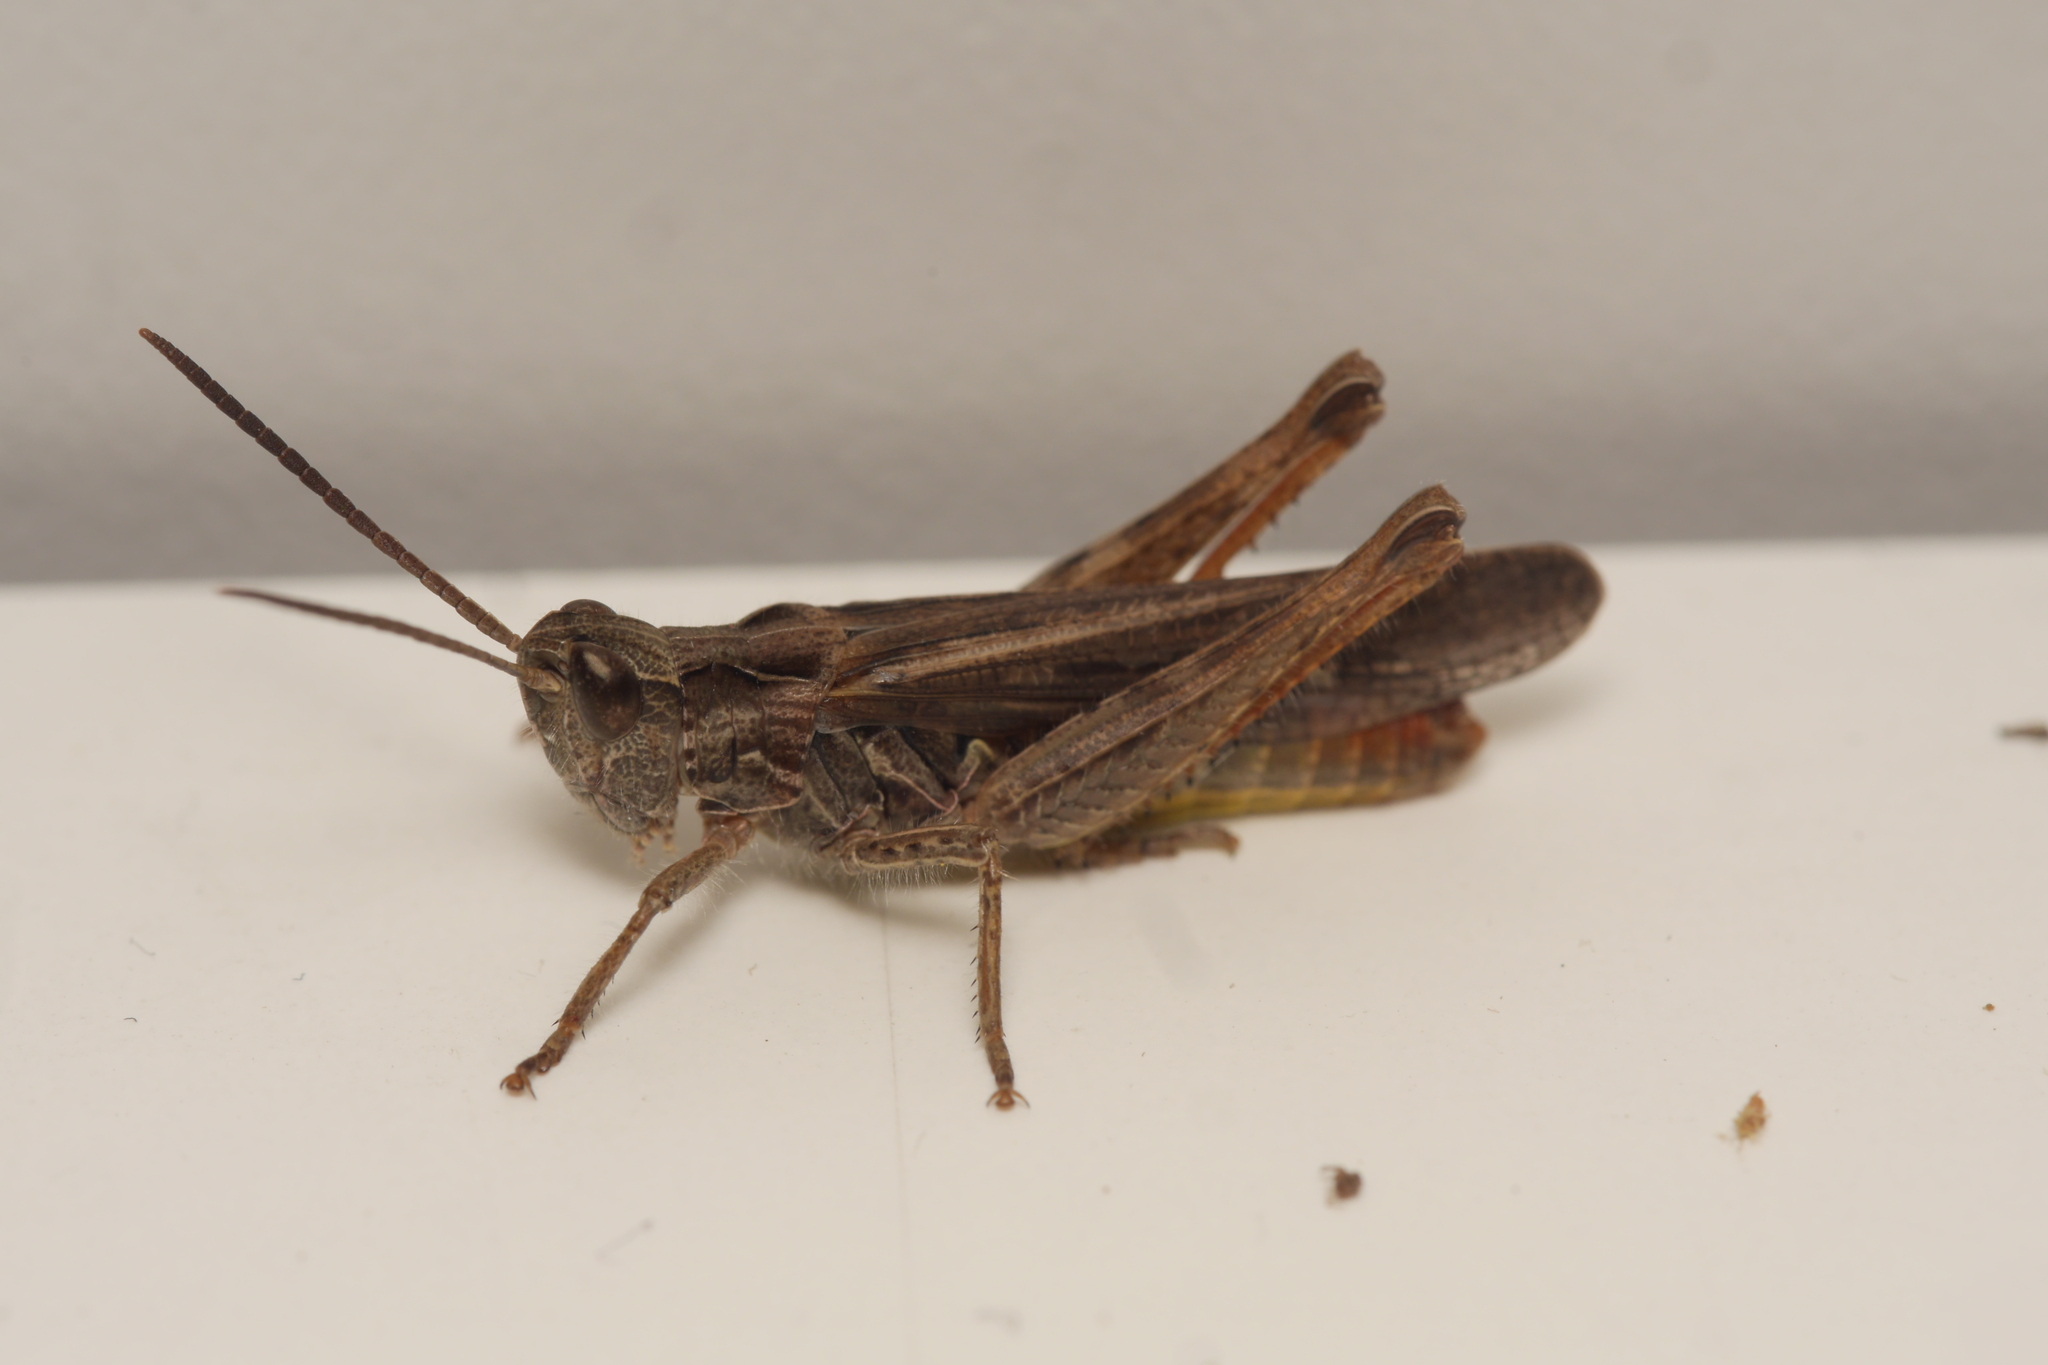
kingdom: Animalia
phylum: Arthropoda
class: Insecta
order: Orthoptera
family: Acrididae
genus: Chorthippus
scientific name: Chorthippus brunneus
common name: Field grasshopper
